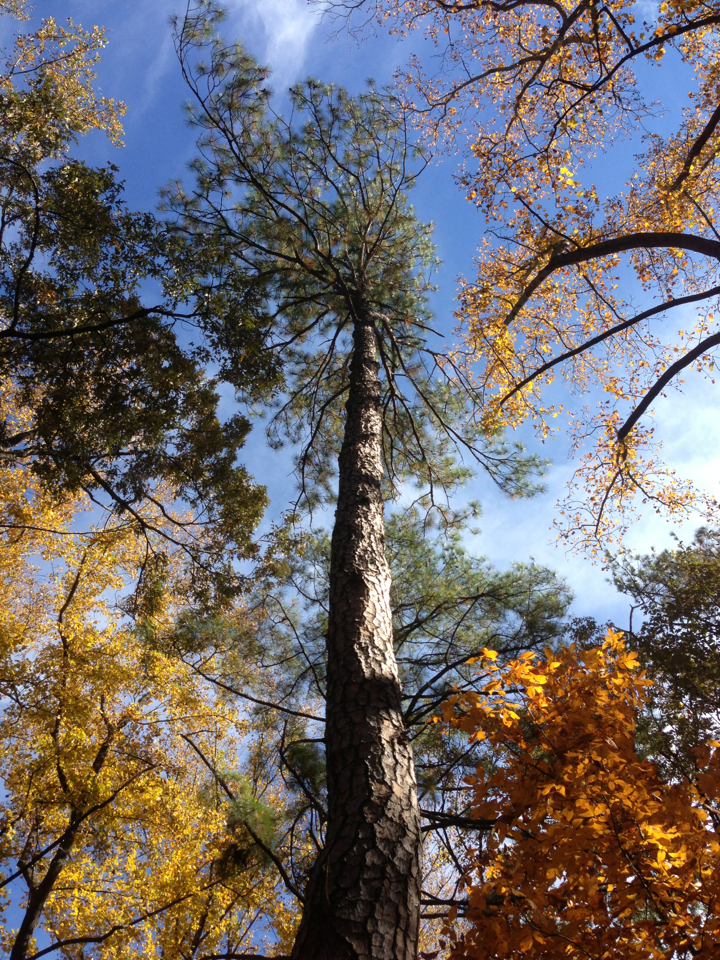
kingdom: Plantae
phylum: Tracheophyta
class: Pinopsida
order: Pinales
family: Pinaceae
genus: Pinus
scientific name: Pinus taeda
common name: Loblolly pine
